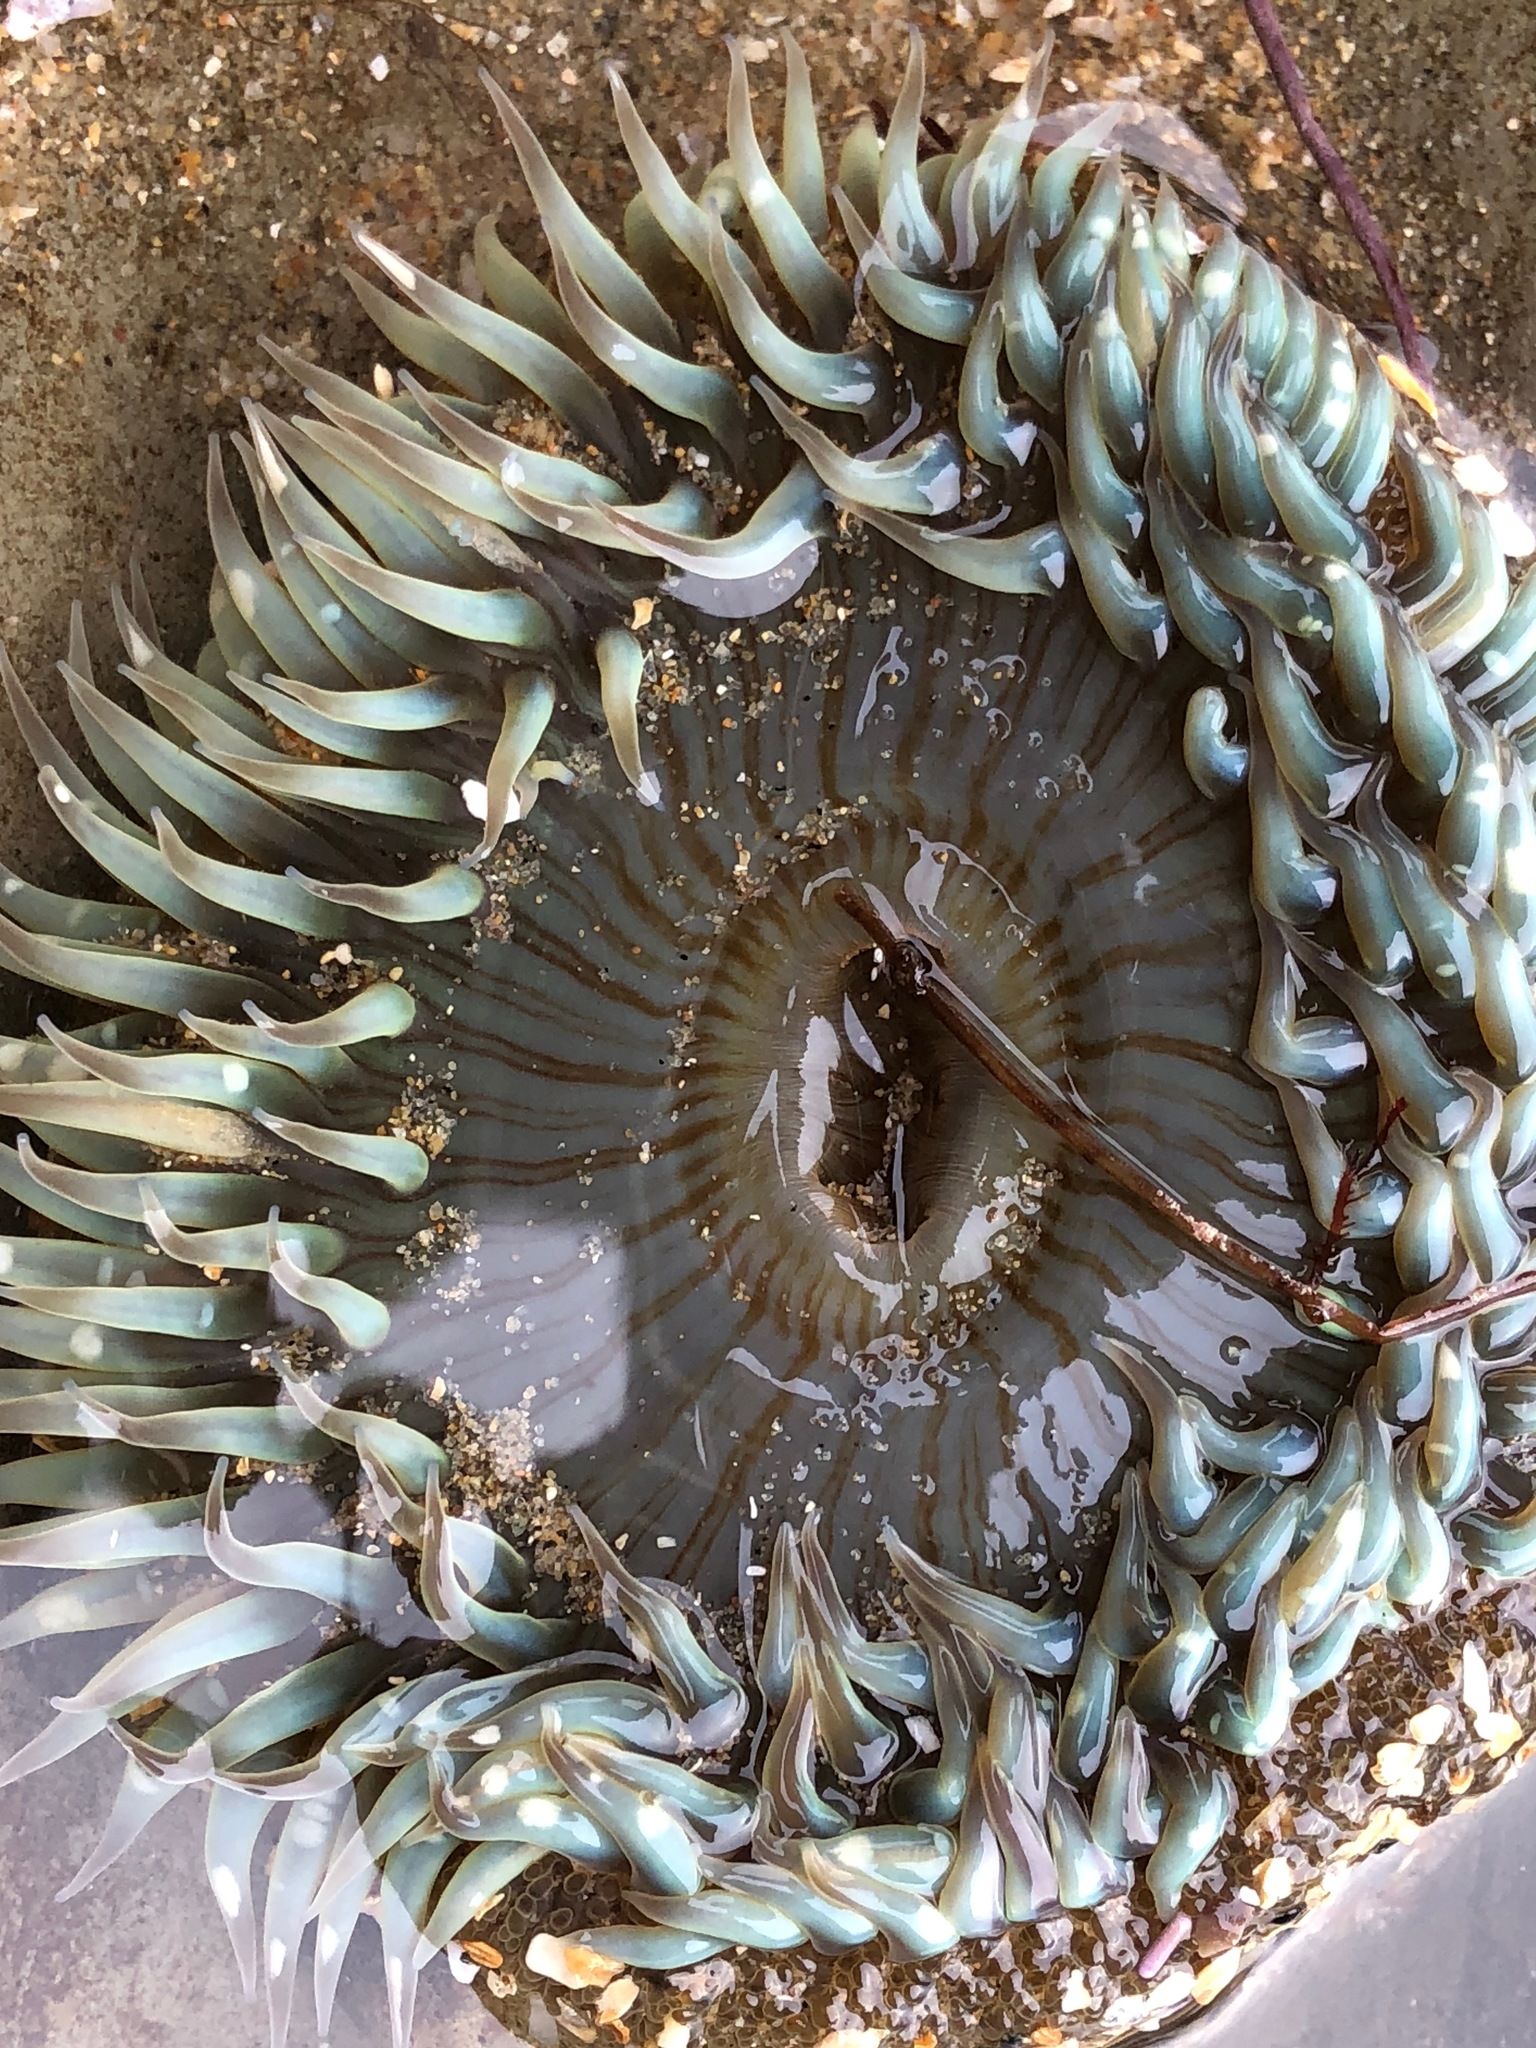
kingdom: Animalia
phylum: Cnidaria
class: Anthozoa
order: Actiniaria
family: Actiniidae
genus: Anthopleura
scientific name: Anthopleura sola
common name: Sun anemone
